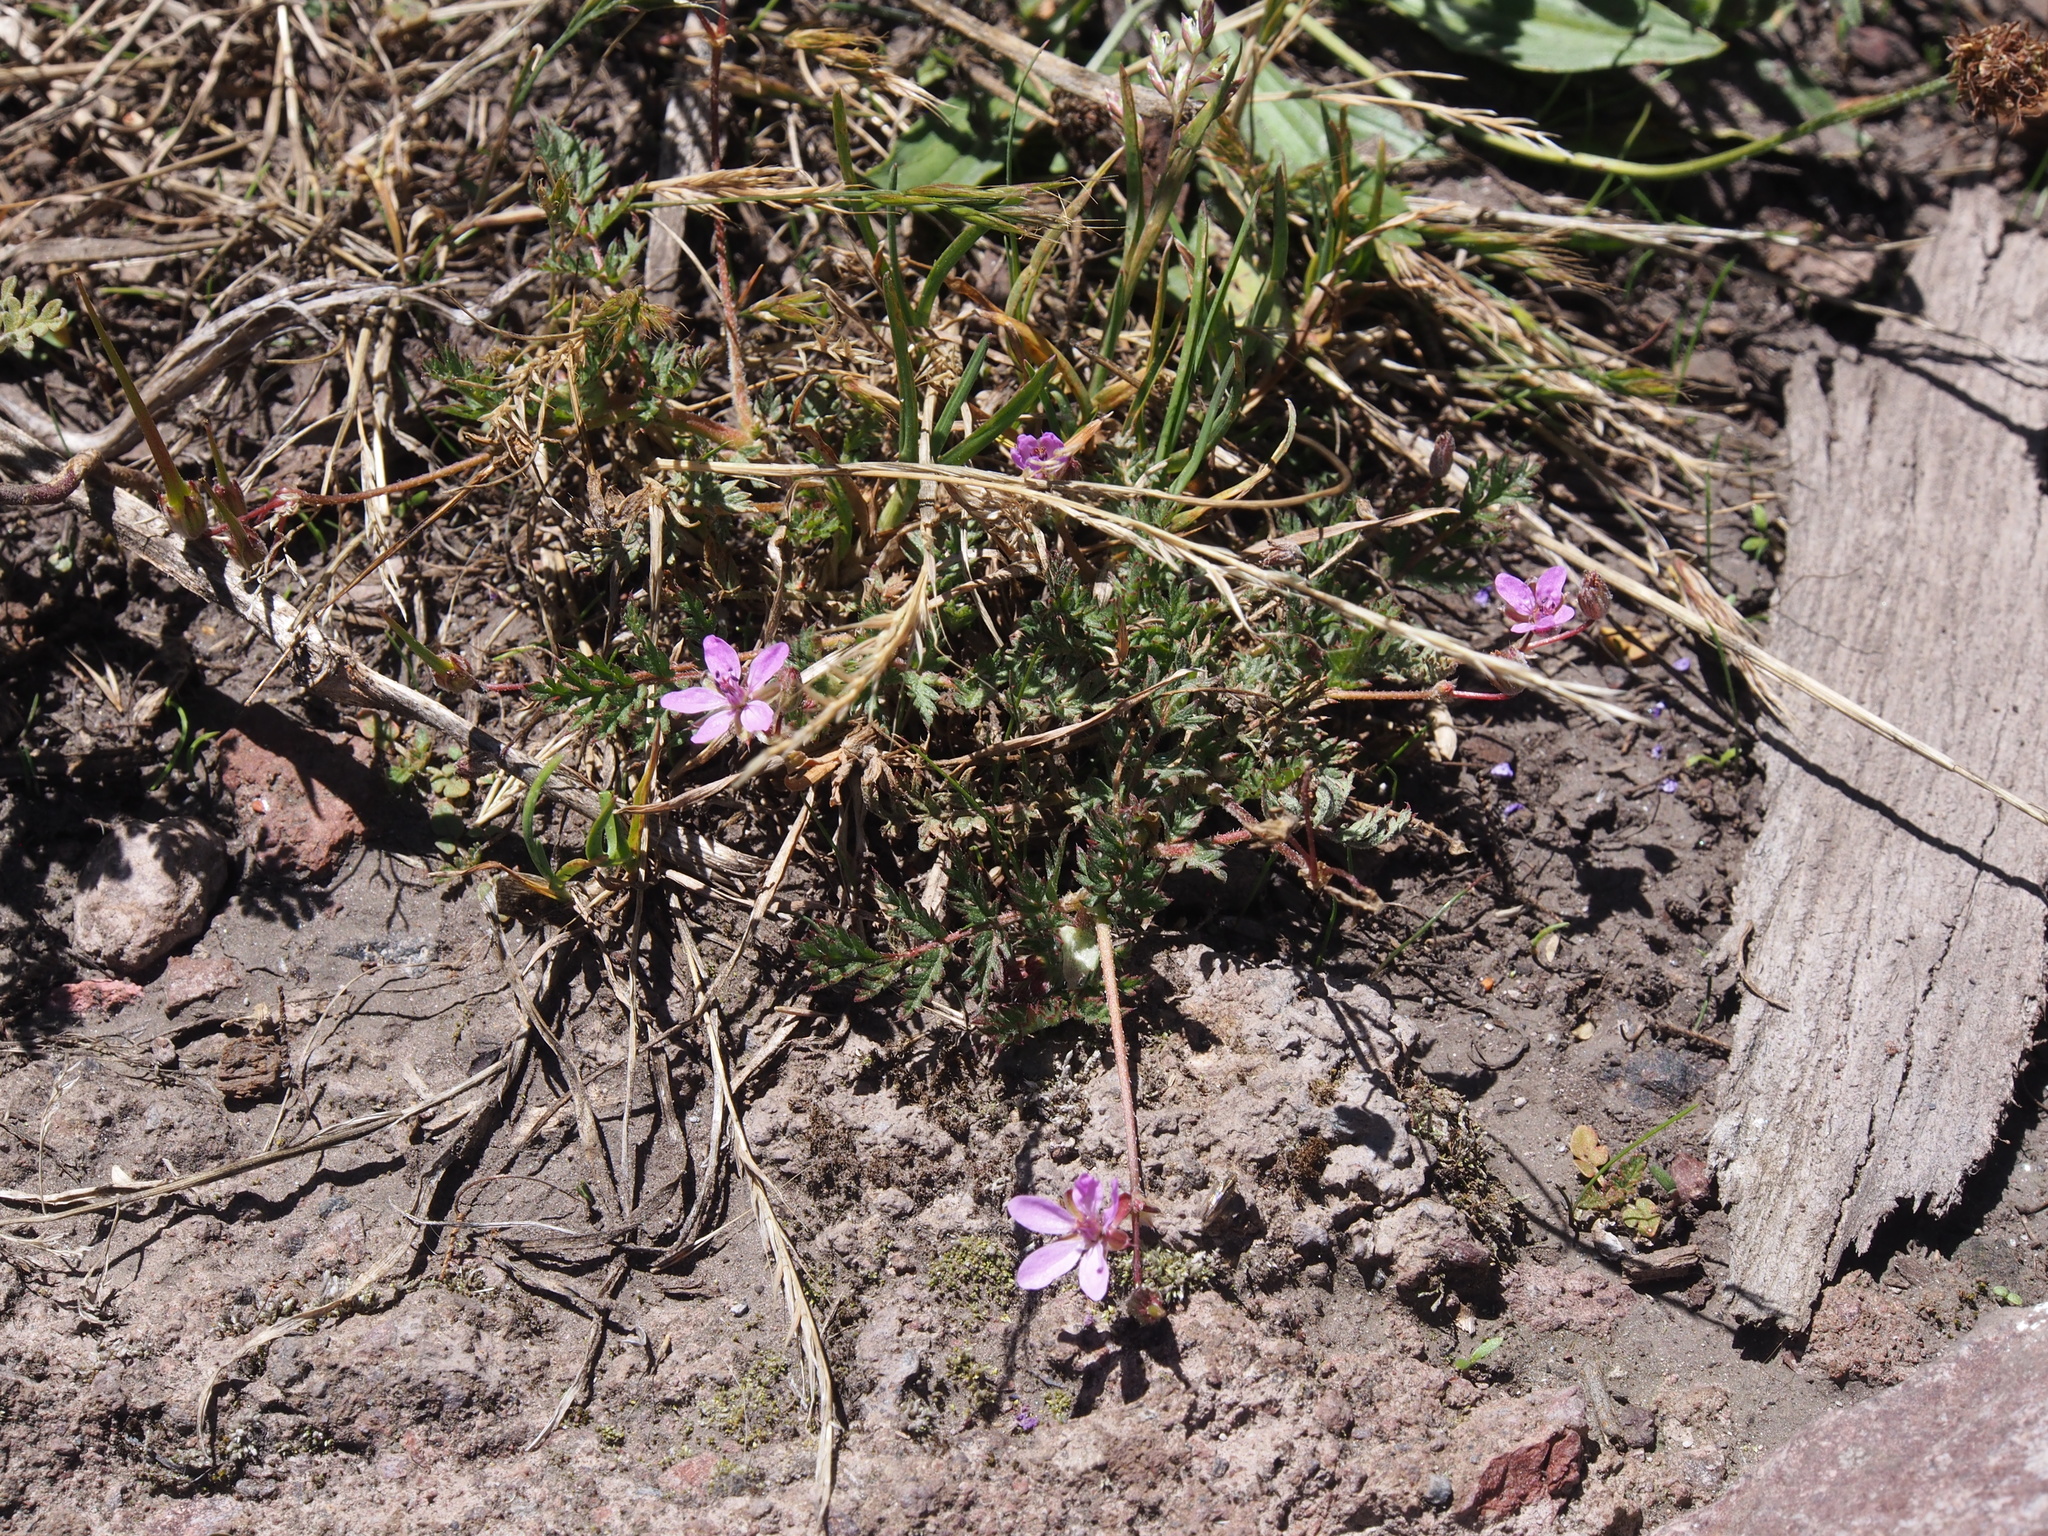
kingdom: Plantae
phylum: Tracheophyta
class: Magnoliopsida
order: Geraniales
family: Geraniaceae
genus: Erodium
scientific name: Erodium cicutarium
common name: Common stork's-bill
